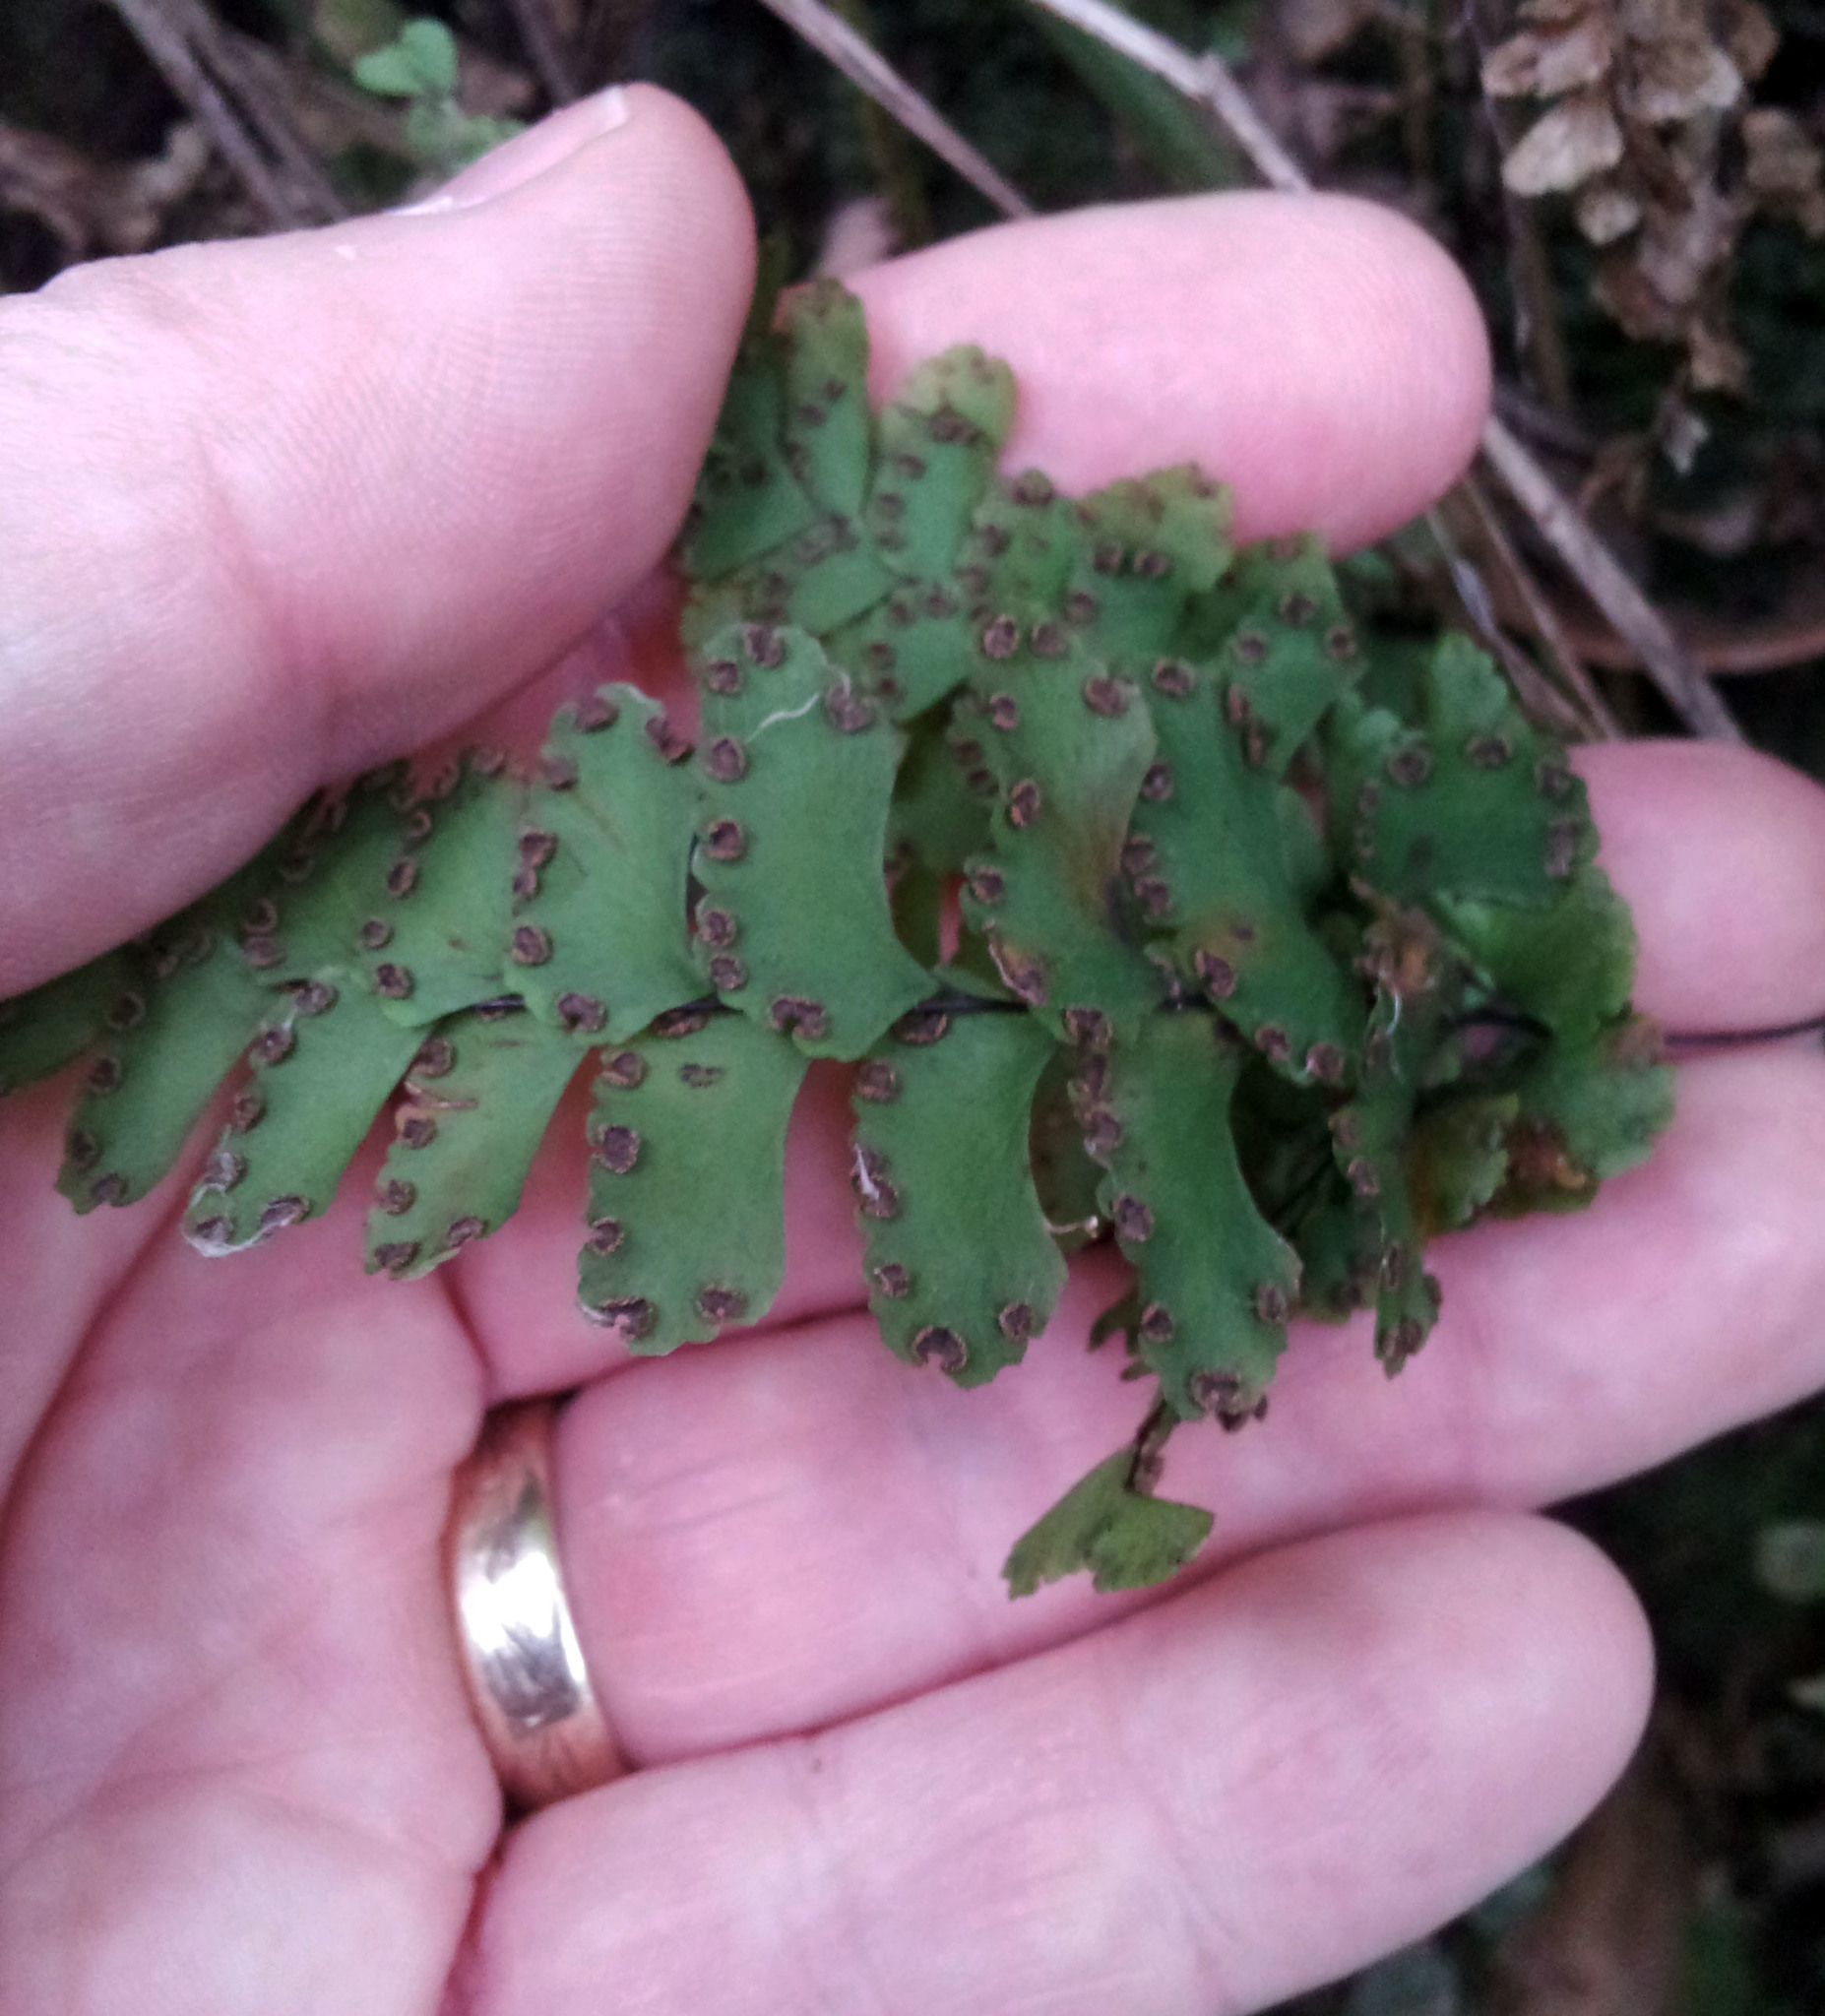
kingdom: Plantae
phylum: Tracheophyta
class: Polypodiopsida
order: Polypodiales
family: Pteridaceae
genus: Adiantum
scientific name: Adiantum diaphanum
